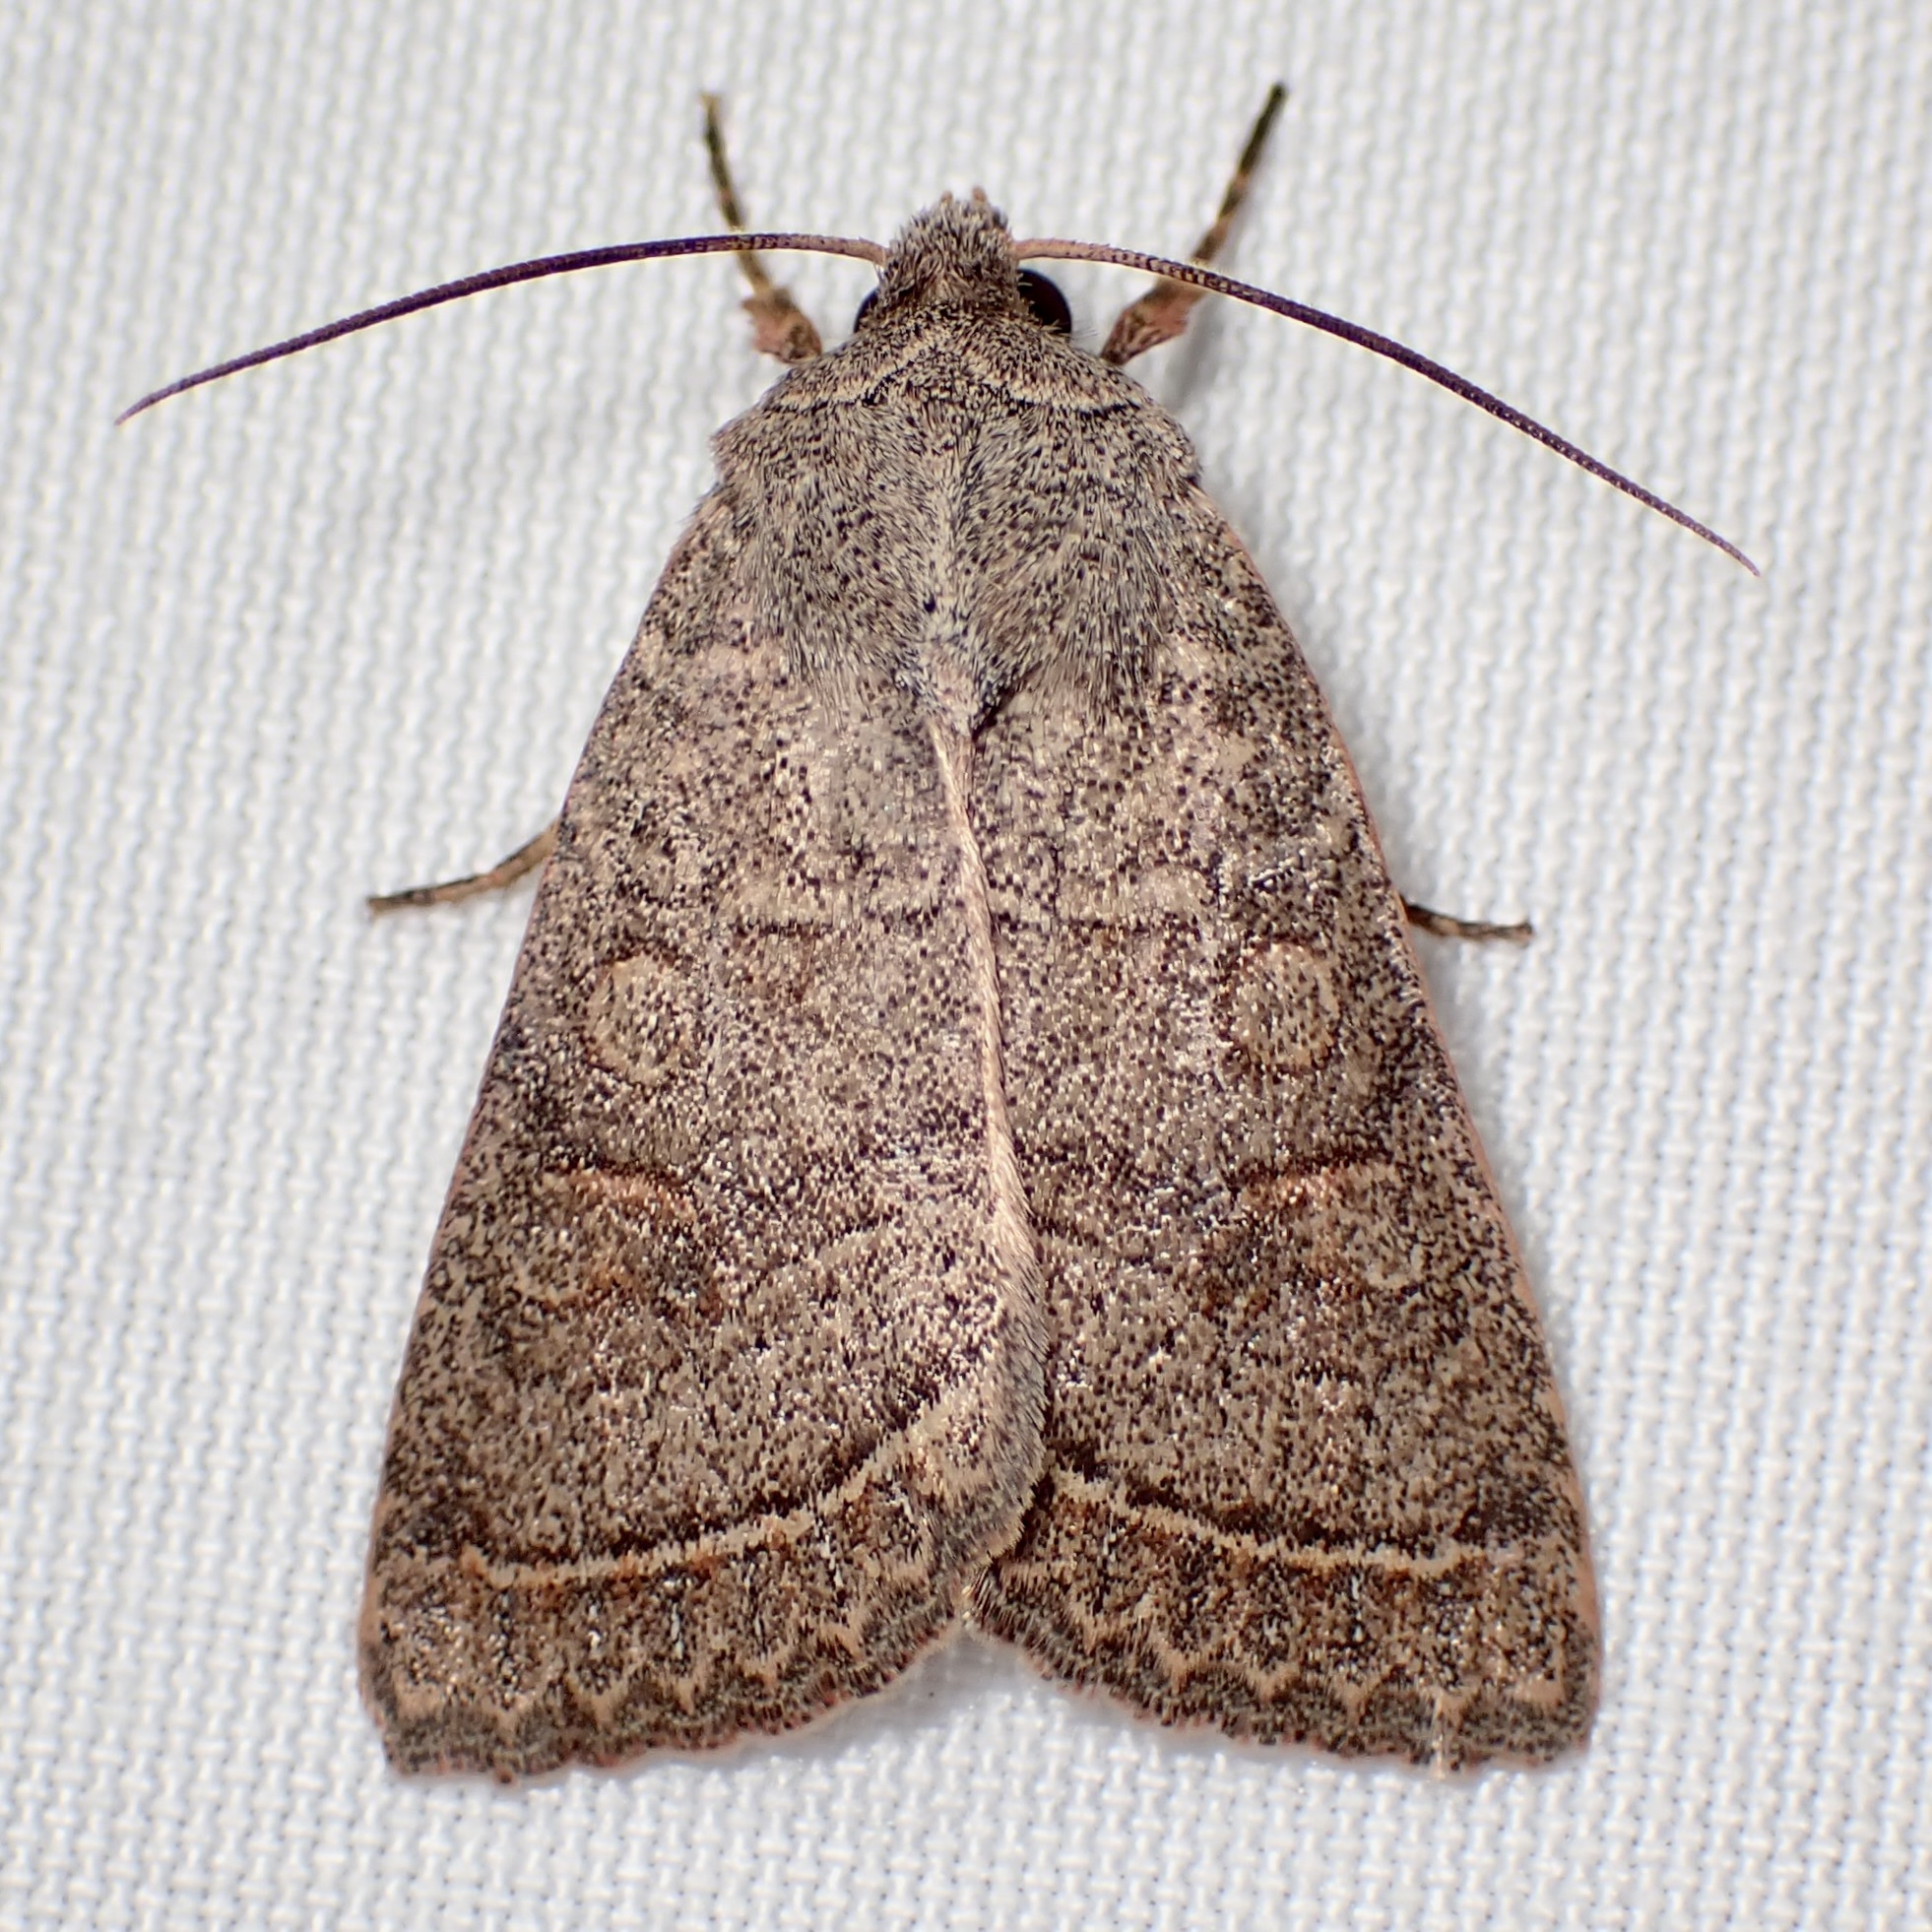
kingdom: Animalia
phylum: Arthropoda
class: Insecta
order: Lepidoptera
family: Noctuidae
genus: Homorthodes
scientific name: Homorthodes rectiflava
